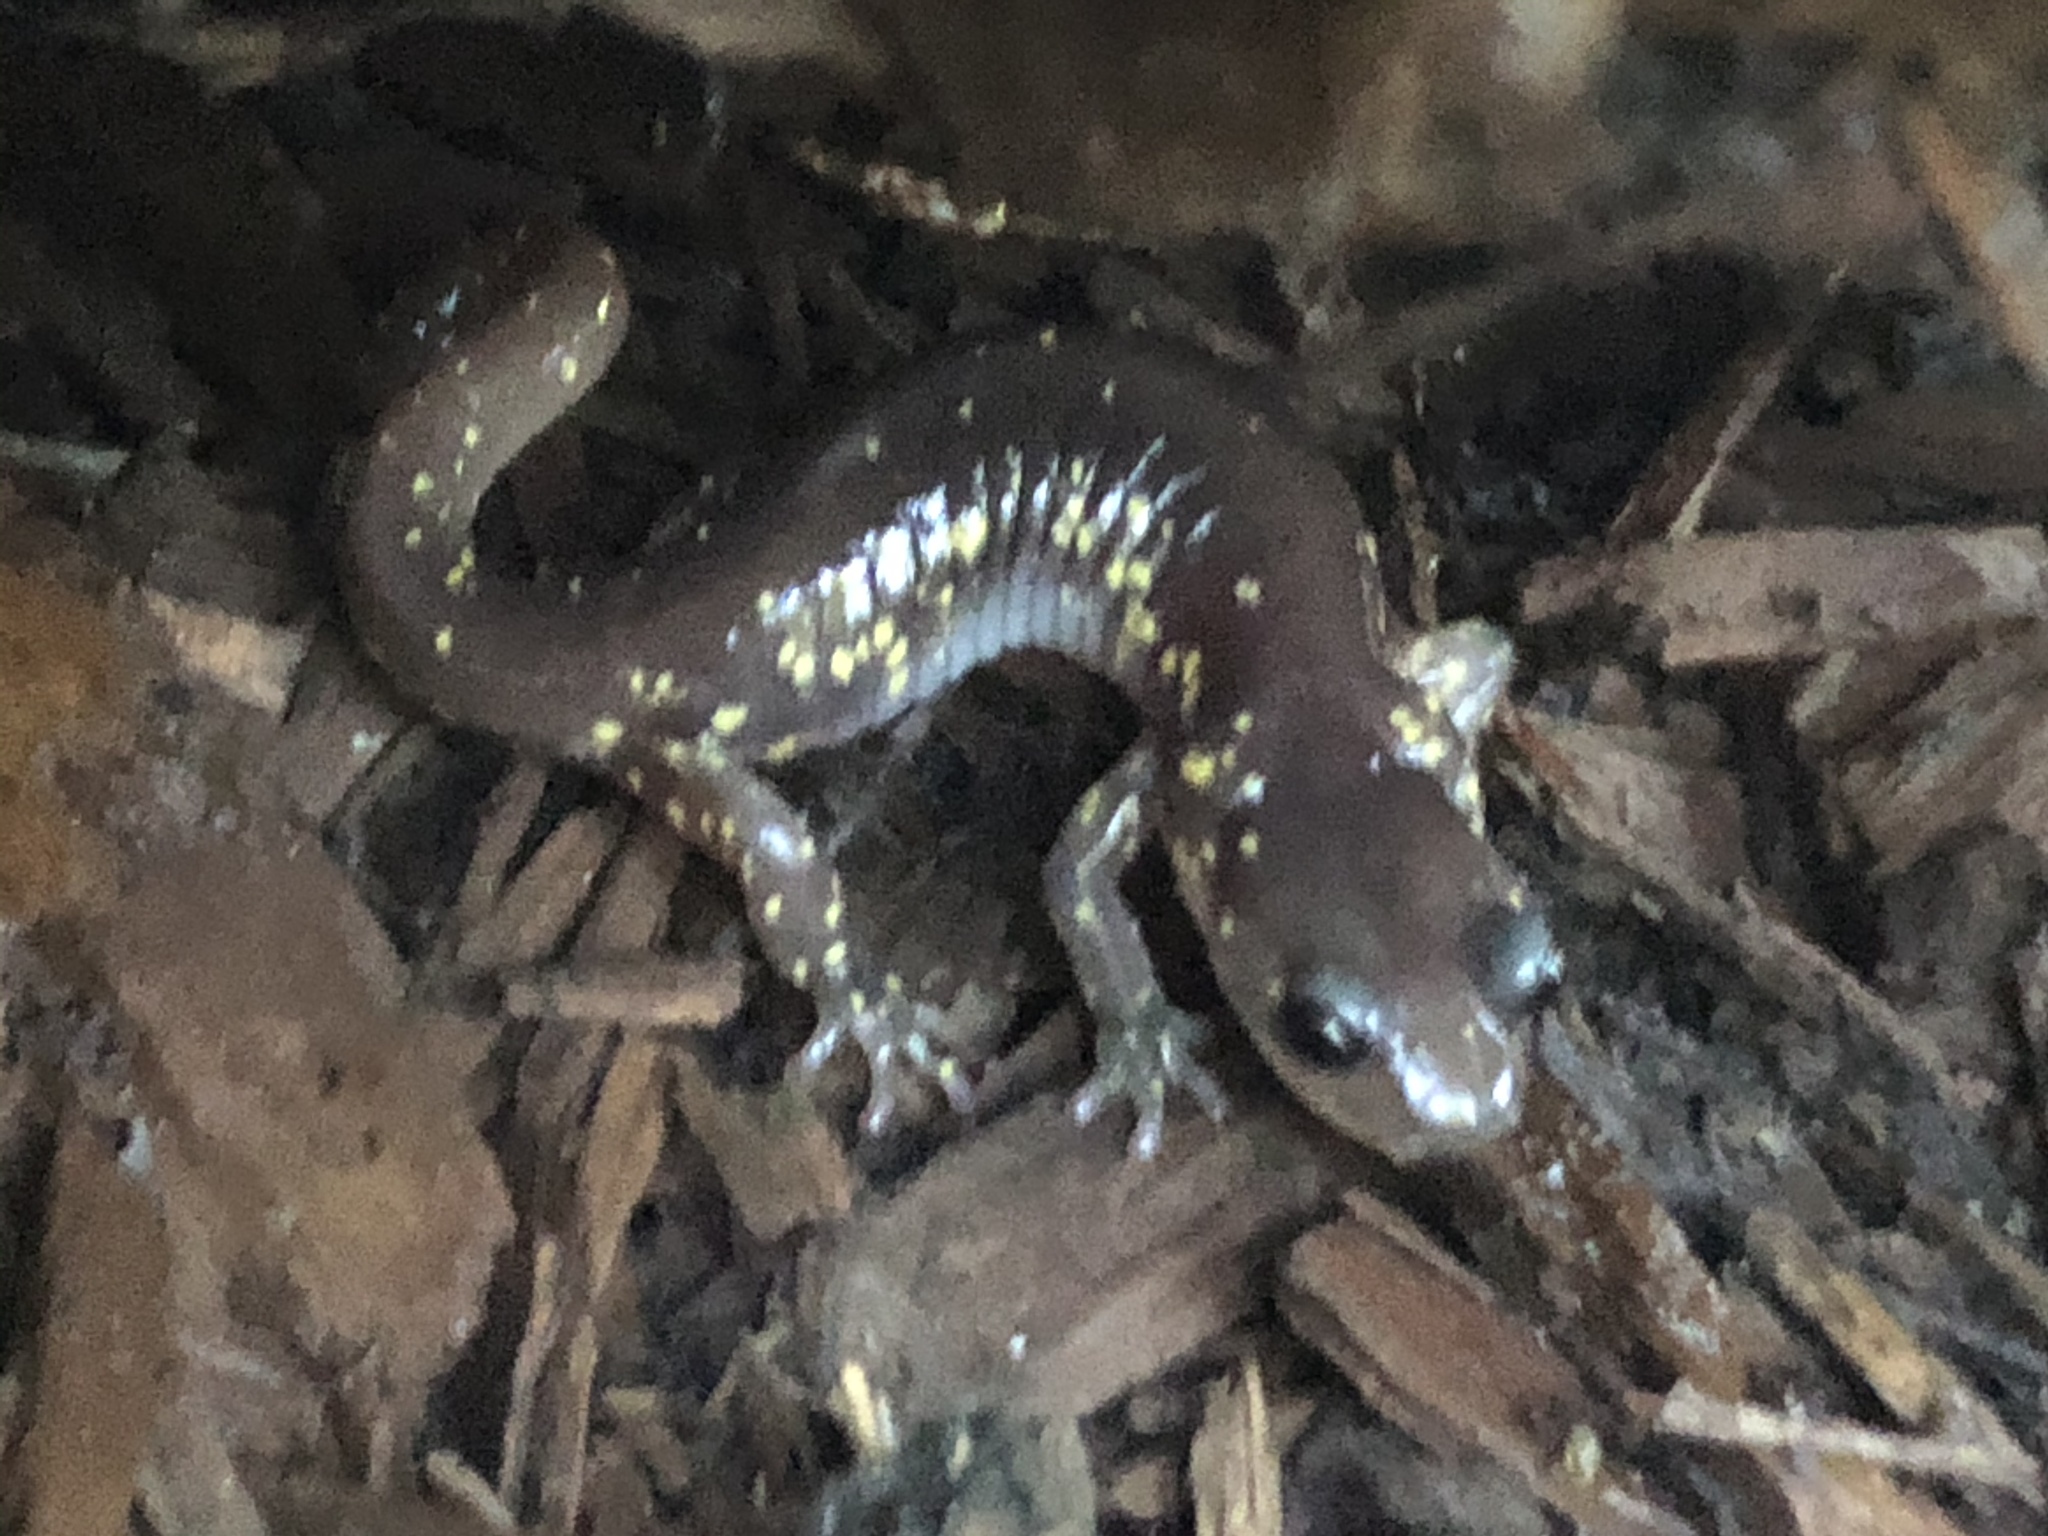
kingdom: Animalia
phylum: Chordata
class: Amphibia
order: Caudata
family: Plethodontidae
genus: Aneides
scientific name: Aneides lugubris
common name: Arboreal salamander
